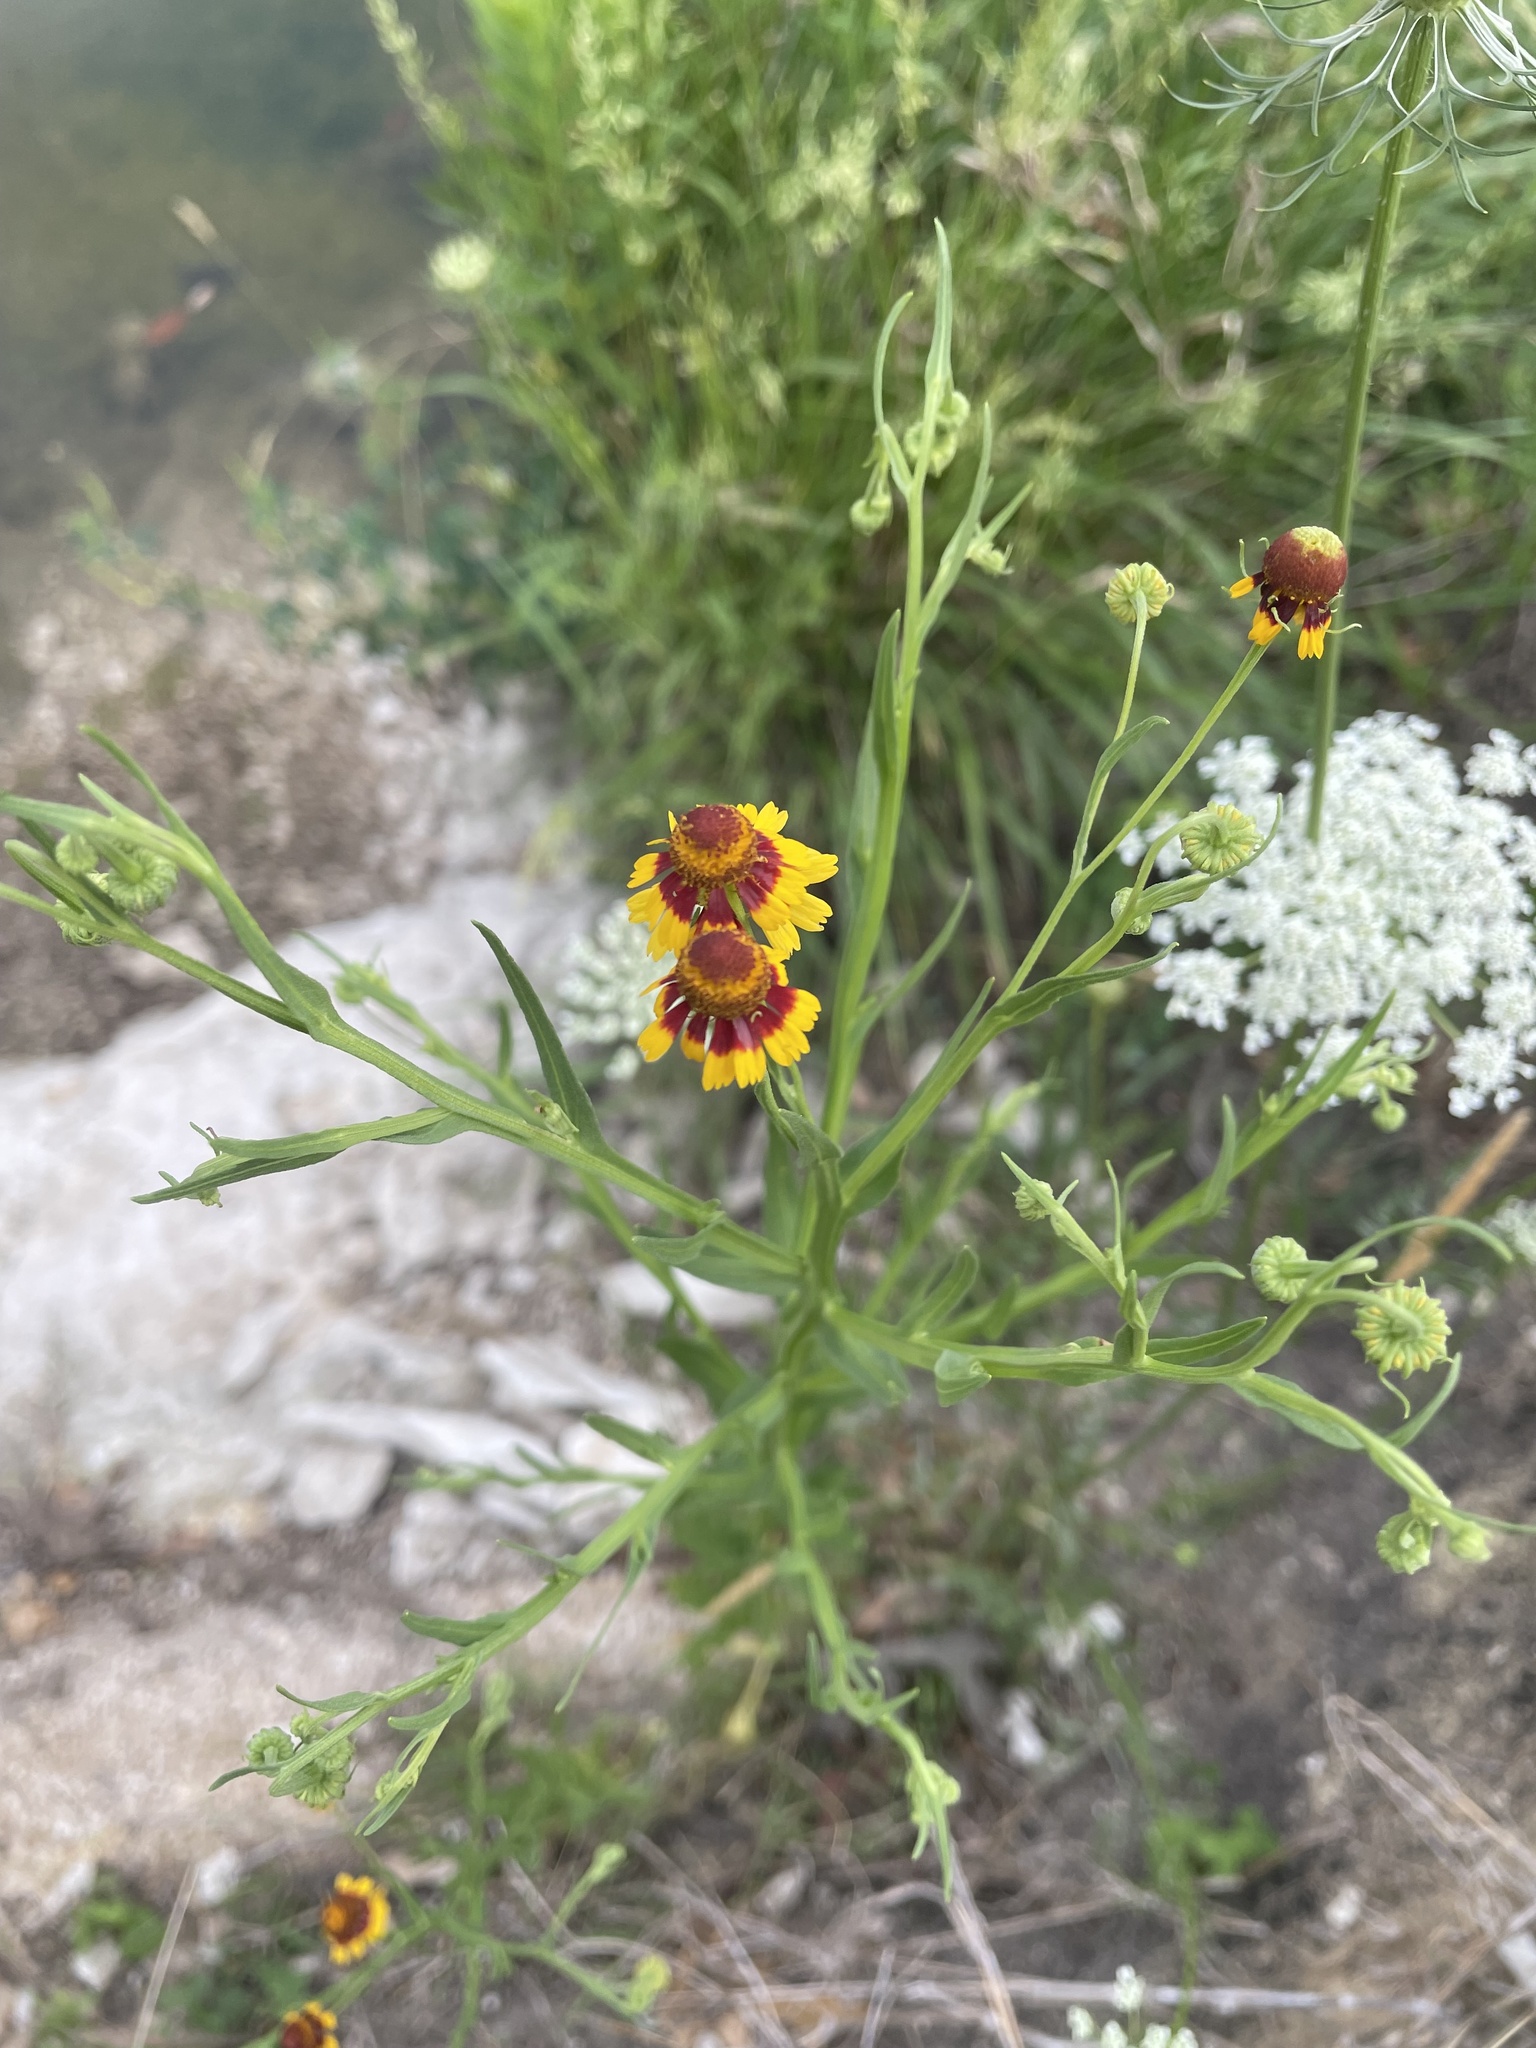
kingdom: Plantae
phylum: Tracheophyta
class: Magnoliopsida
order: Asterales
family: Asteraceae
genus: Helenium
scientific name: Helenium elegans
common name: Pretty sneezeweed
